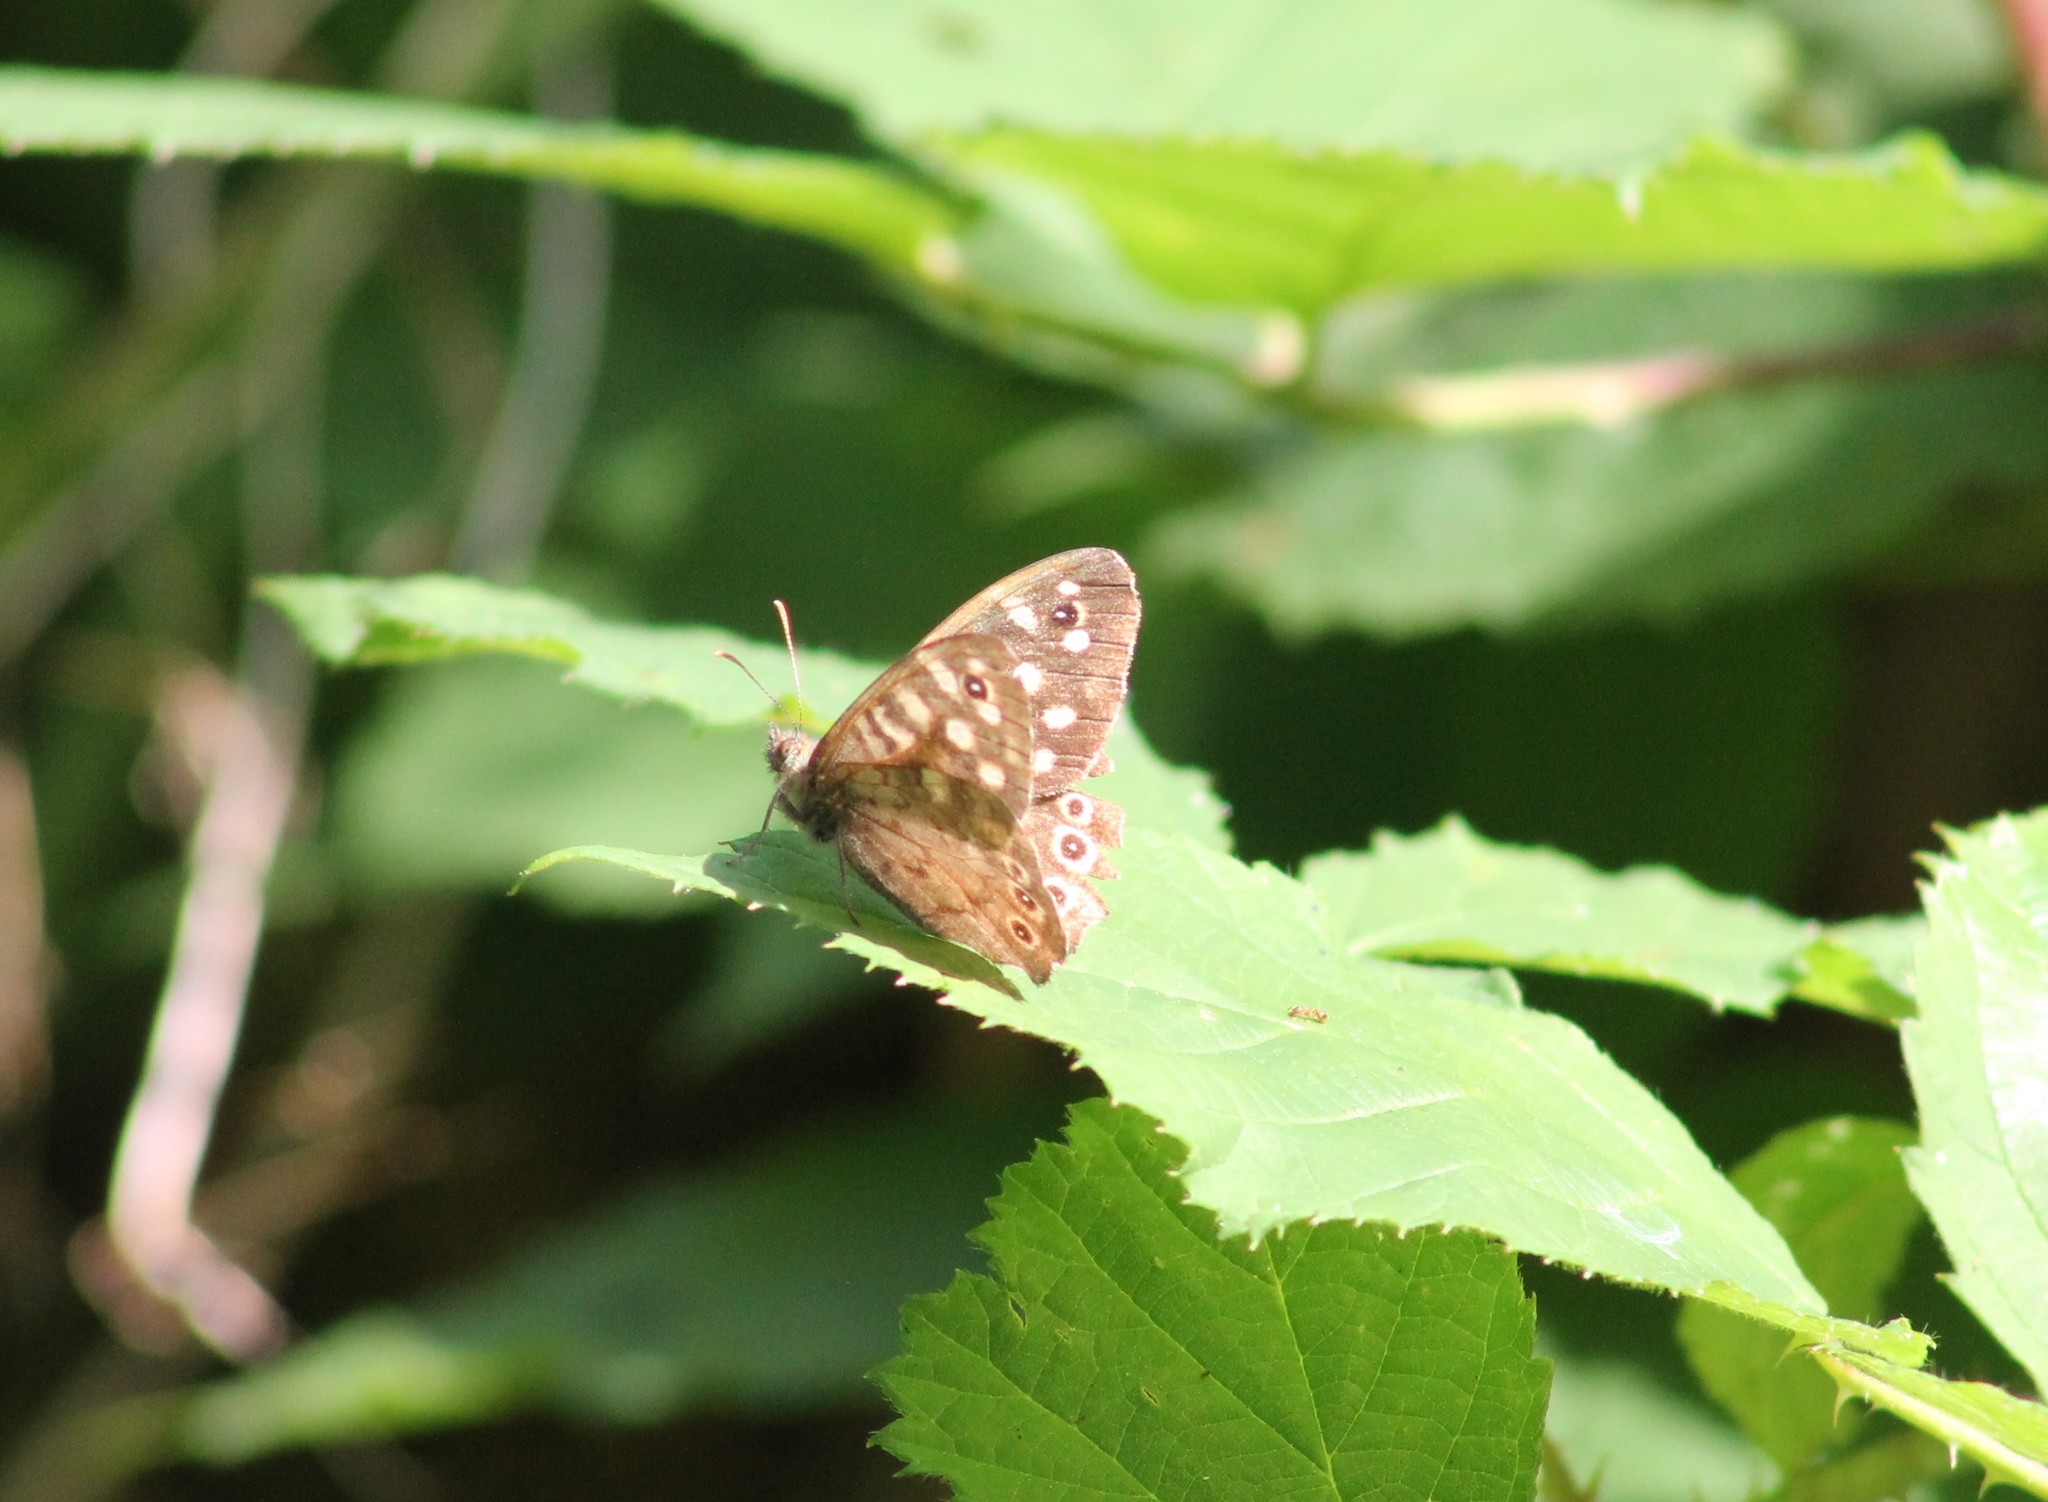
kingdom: Animalia
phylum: Arthropoda
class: Insecta
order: Lepidoptera
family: Nymphalidae
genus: Pararge
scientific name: Pararge aegeria
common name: Speckled wood
